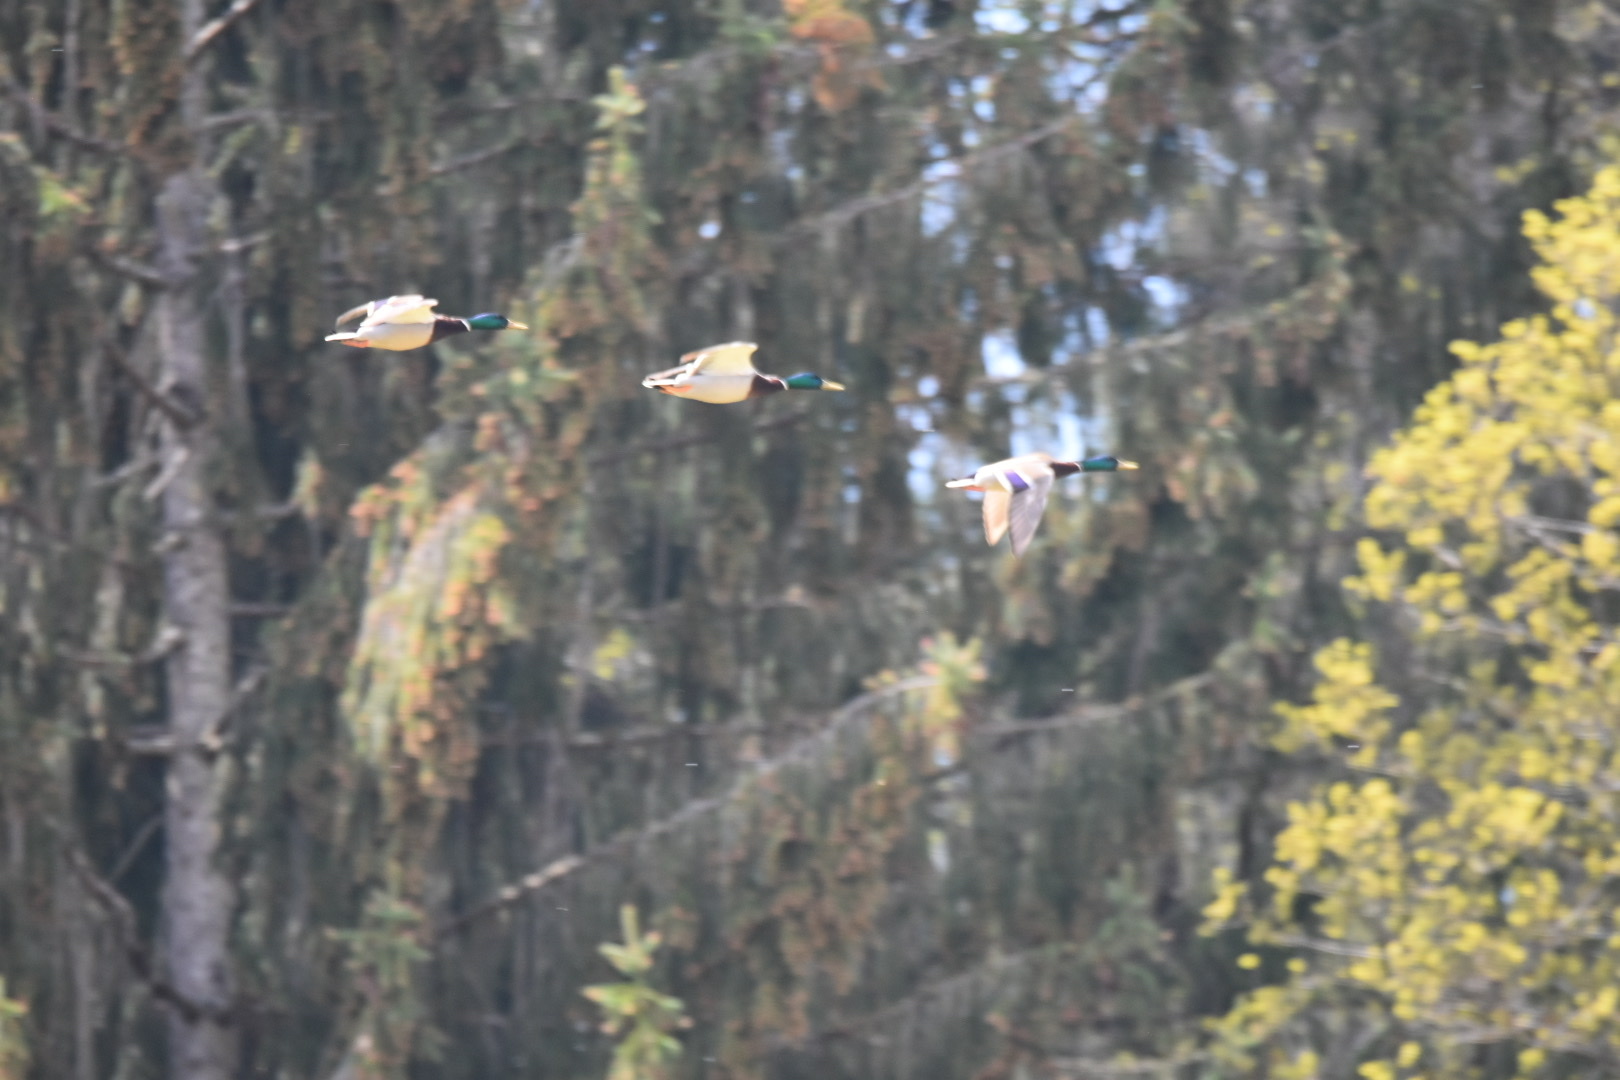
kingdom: Animalia
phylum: Chordata
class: Aves
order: Anseriformes
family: Anatidae
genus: Anas
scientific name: Anas platyrhynchos
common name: Mallard
